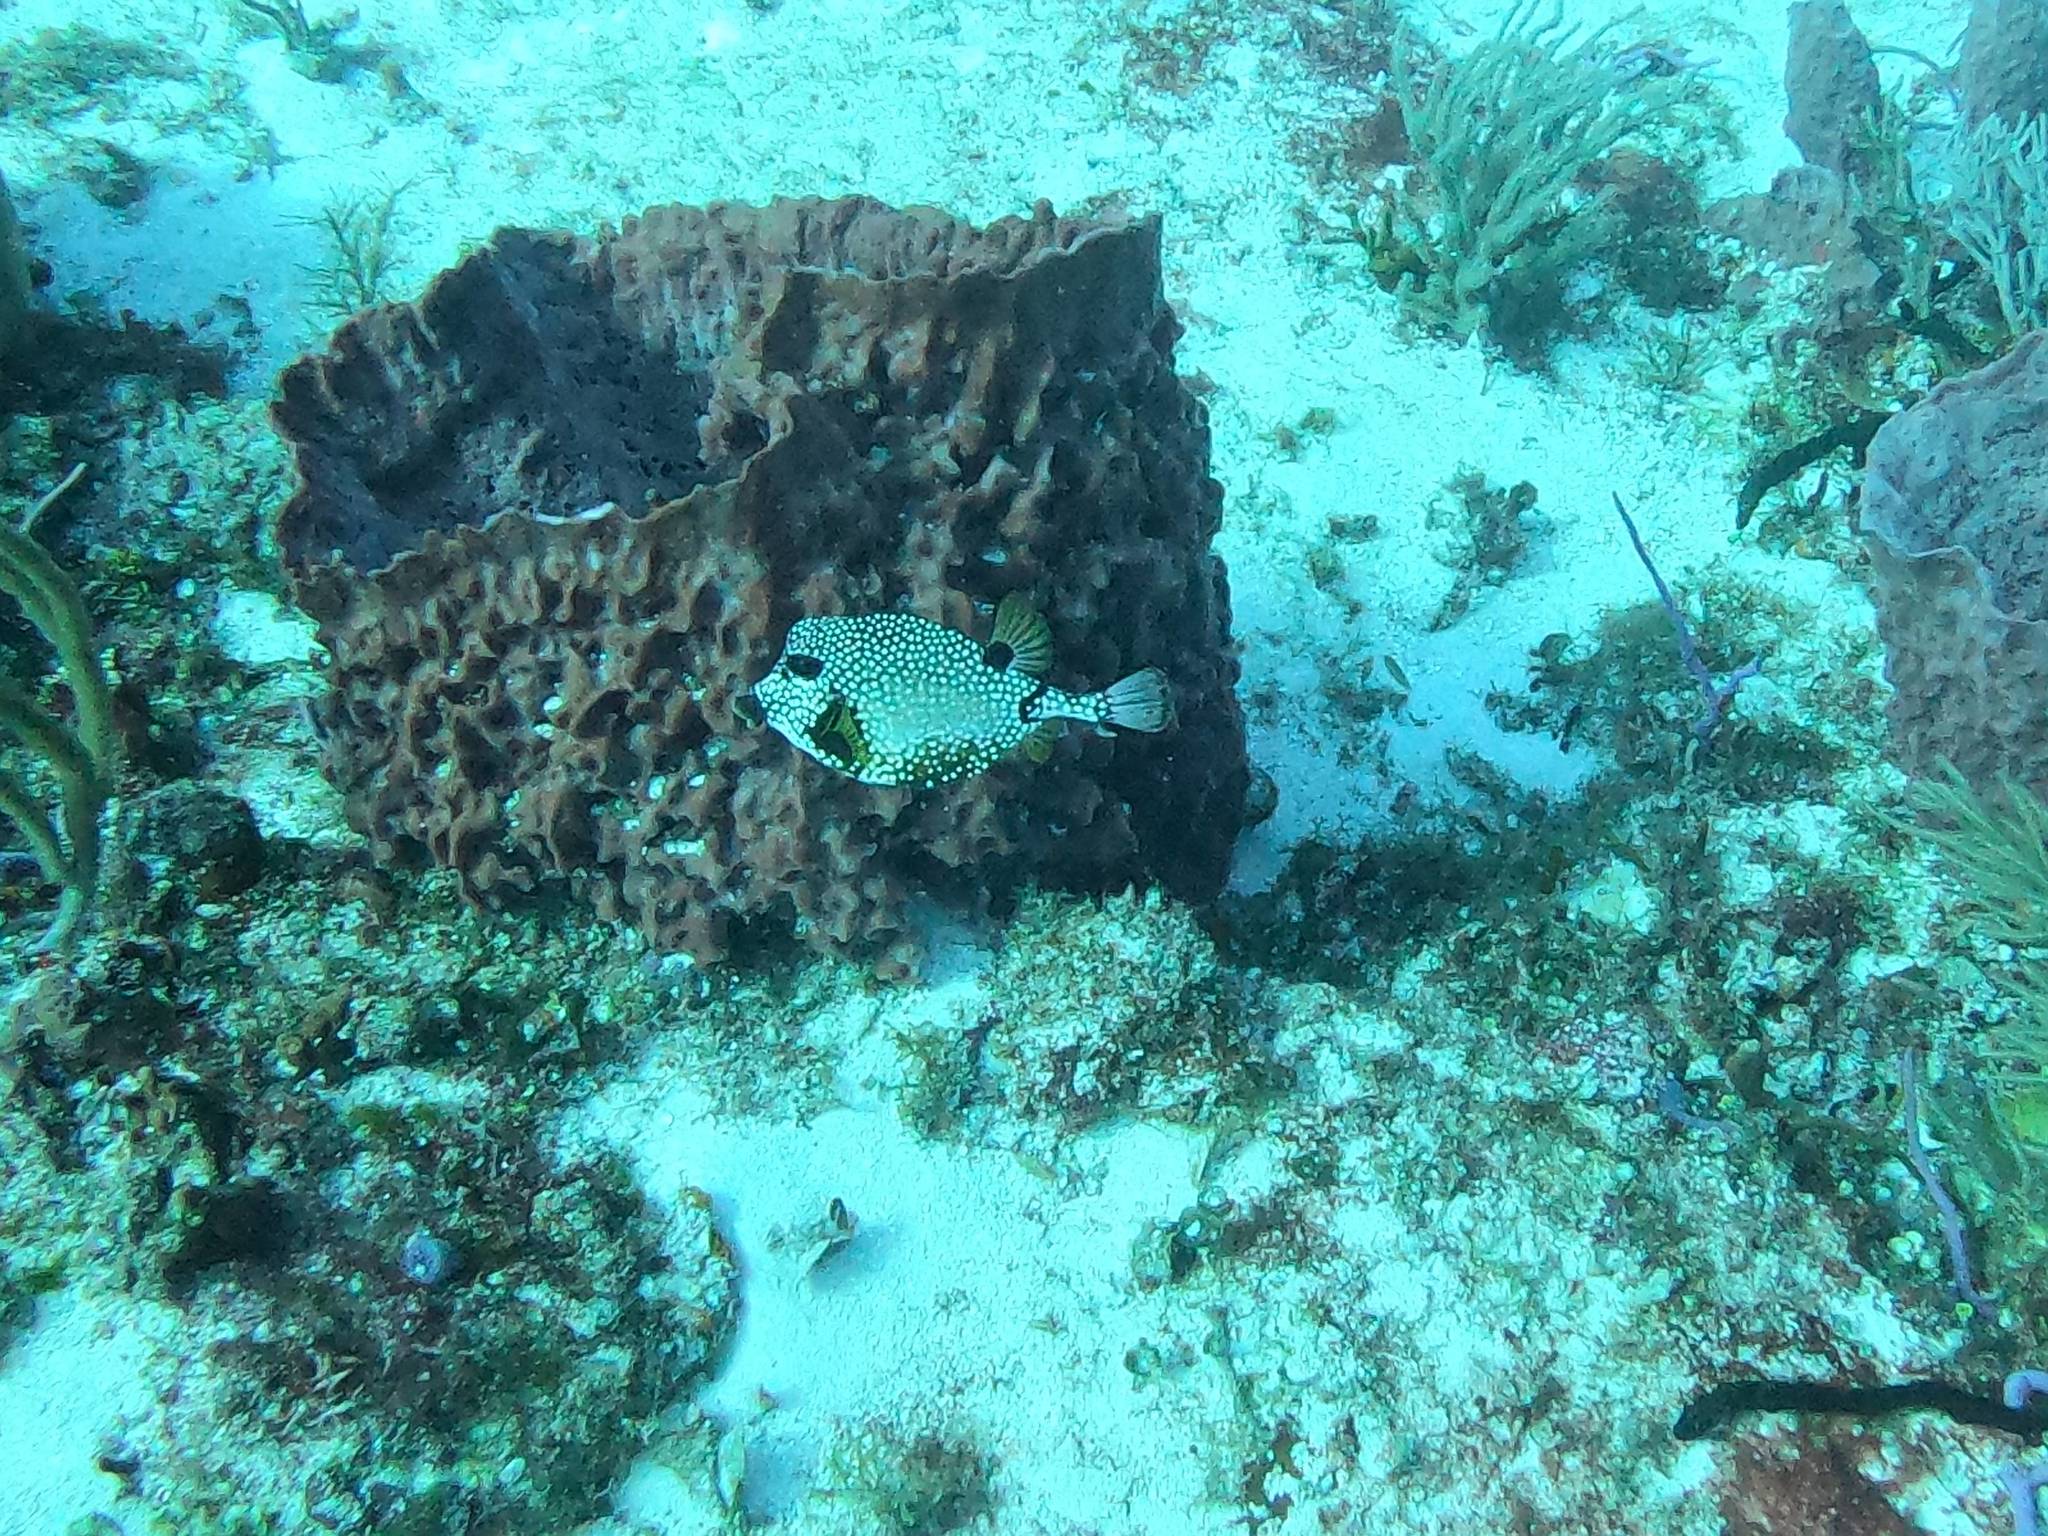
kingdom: Animalia
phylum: Chordata
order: Tetraodontiformes
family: Ostraciidae
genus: Lactophrys
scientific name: Lactophrys triqueter
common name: Smooth trunkfish
